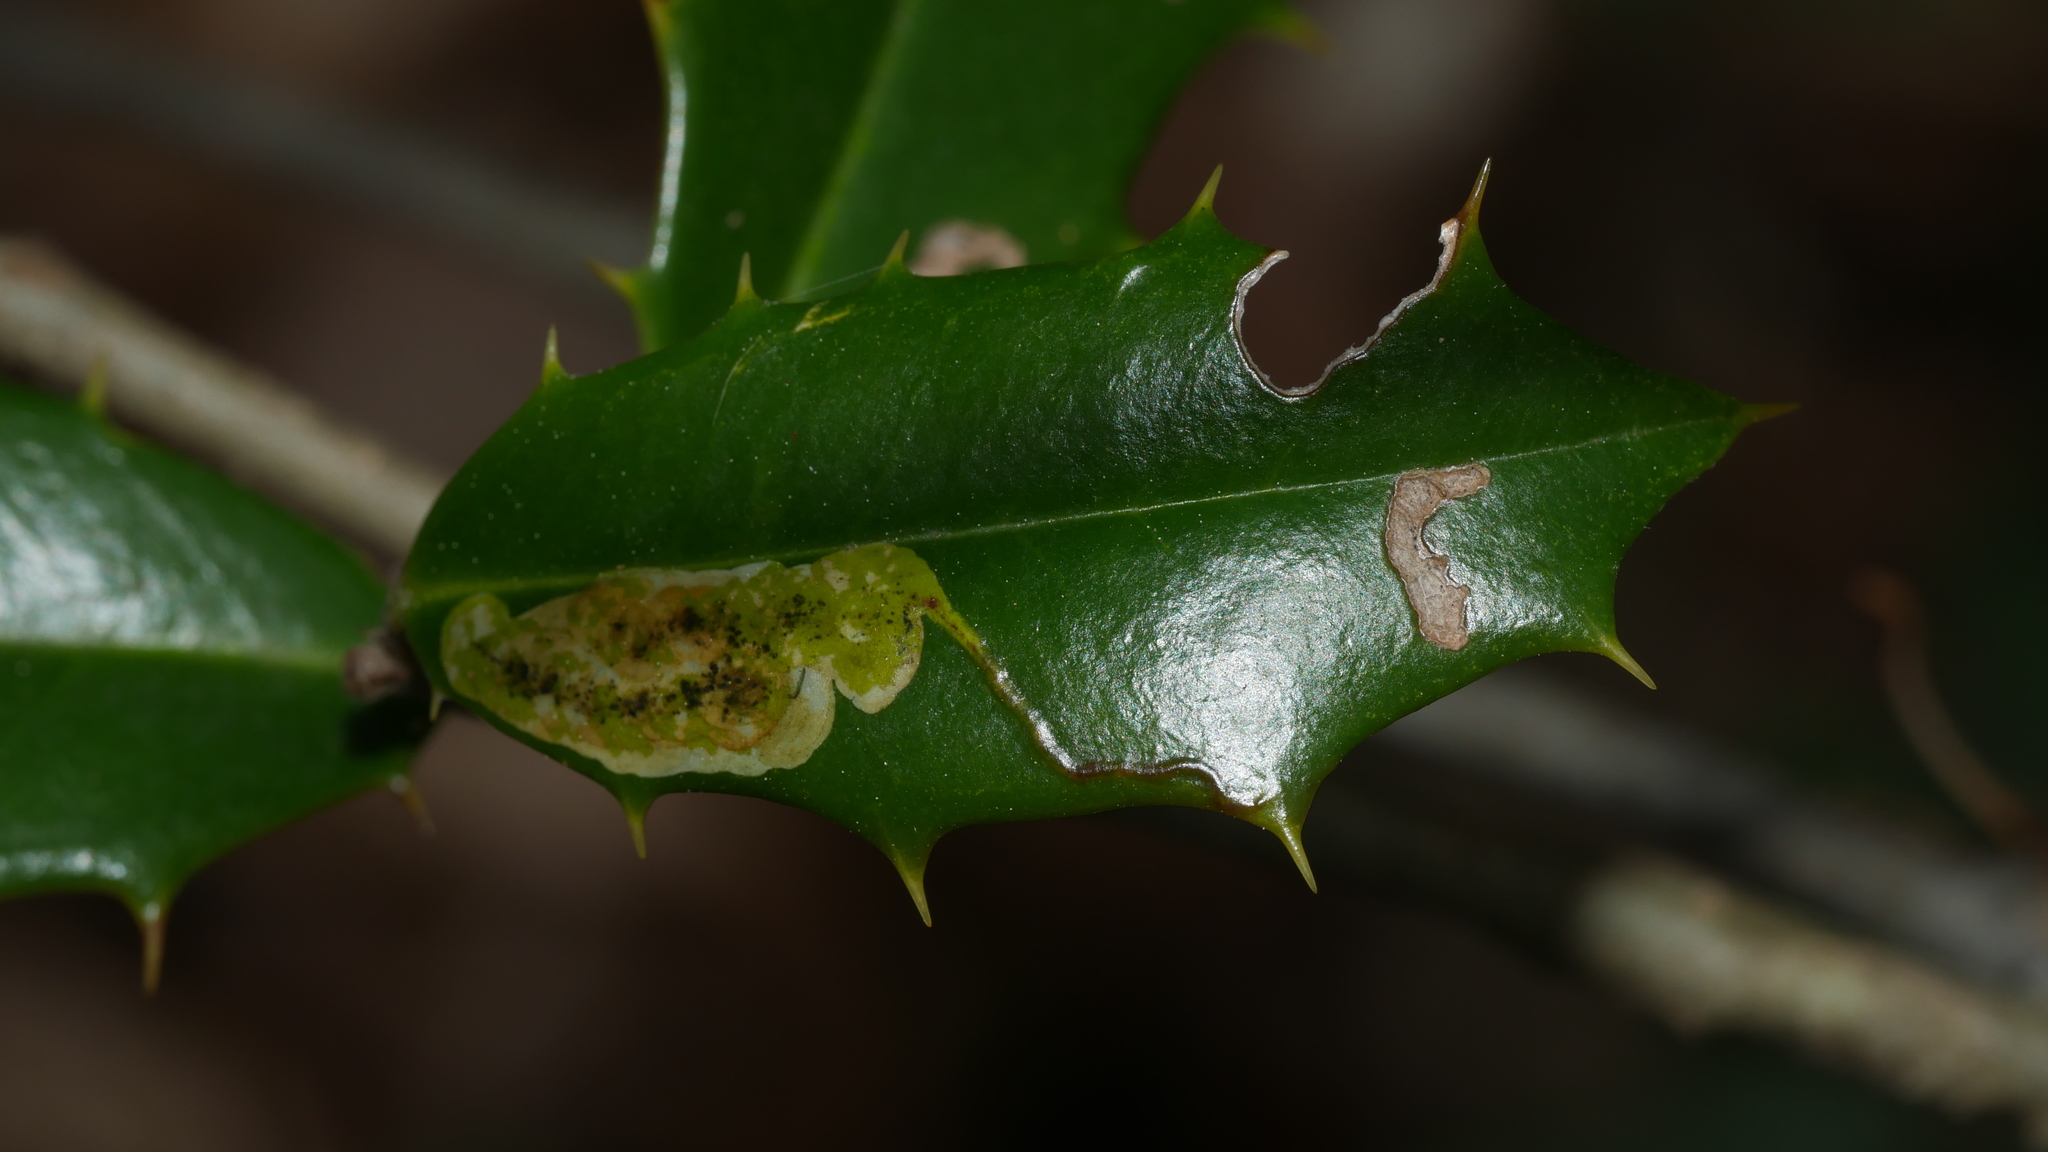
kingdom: Animalia
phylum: Arthropoda
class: Insecta
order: Diptera
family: Agromyzidae
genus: Phytomyza
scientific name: Phytomyza ilicicola
